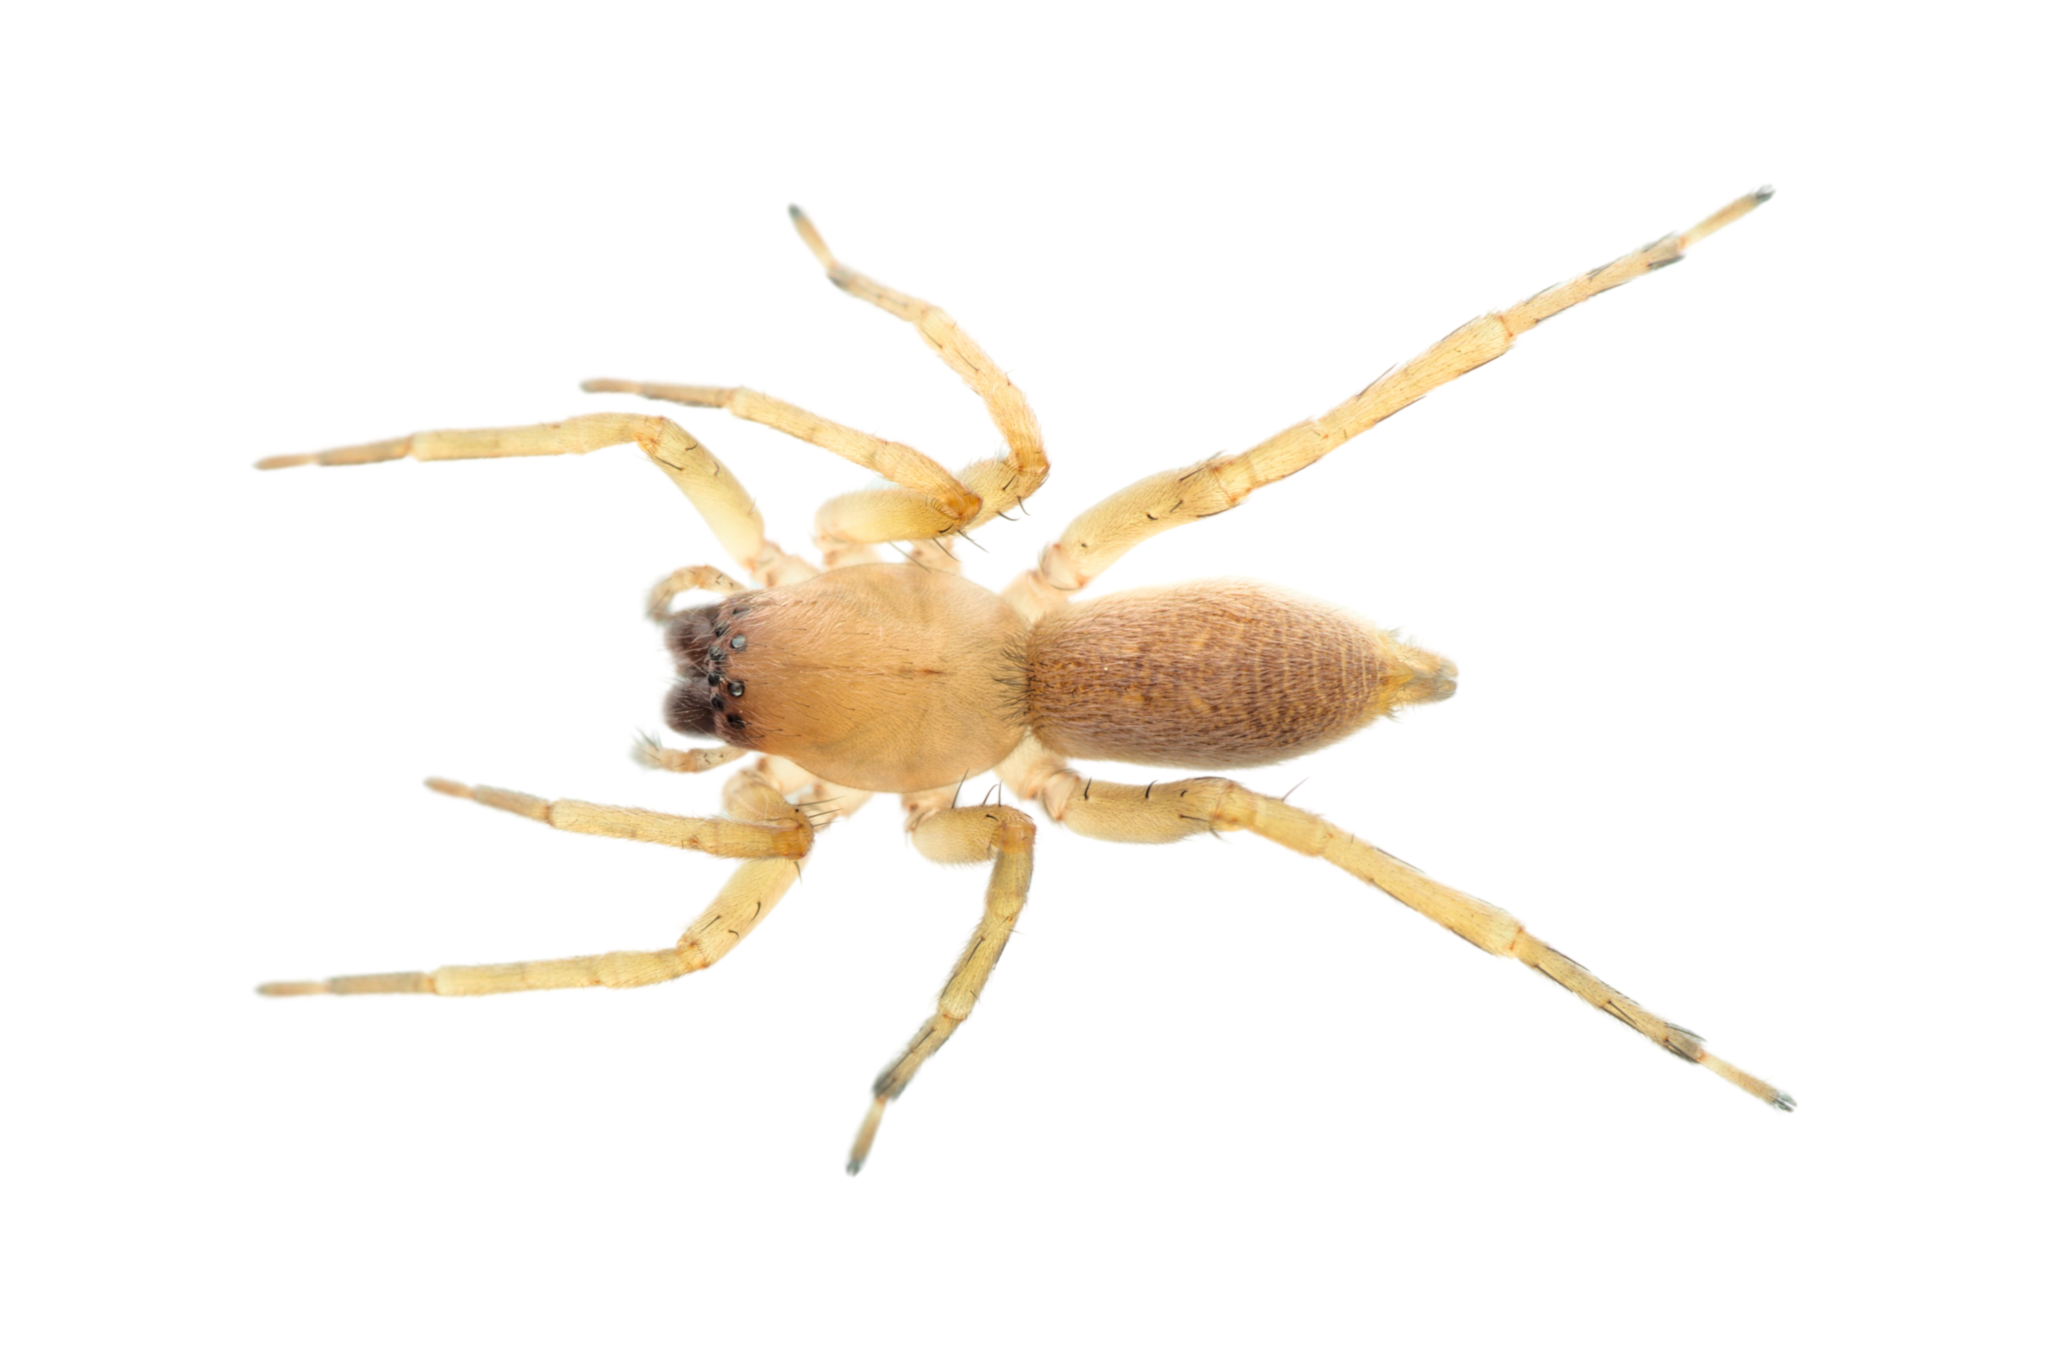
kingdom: Animalia
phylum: Arthropoda
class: Arachnida
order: Araneae
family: Clubionidae
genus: Clubiona
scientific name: Clubiona terrestris
